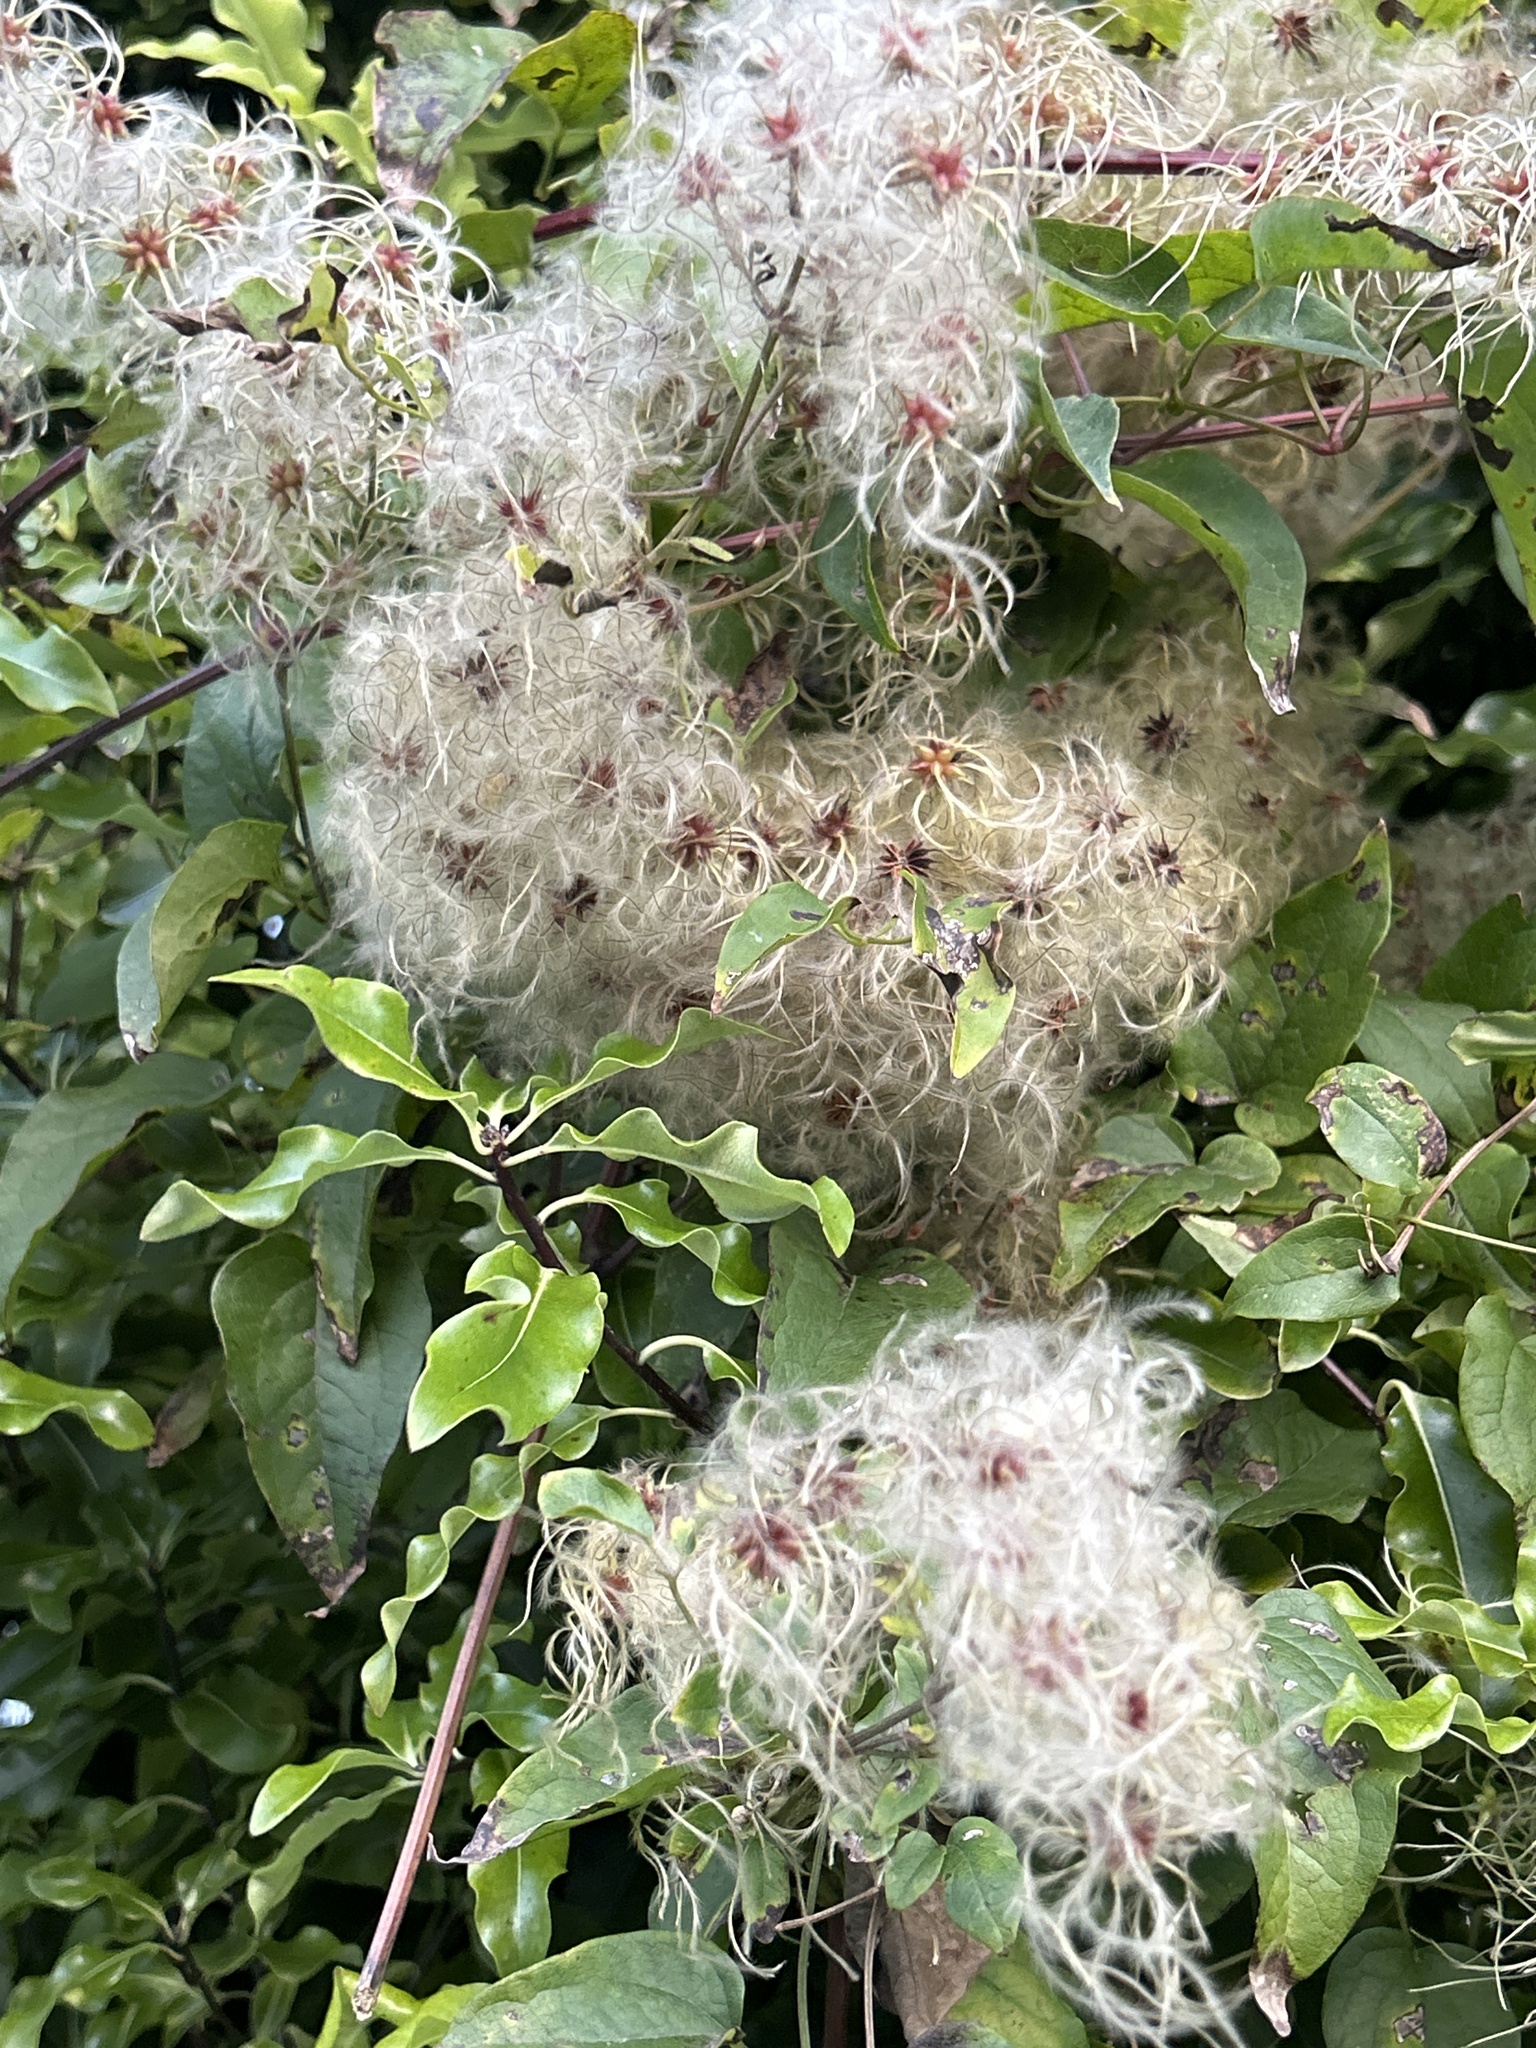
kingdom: Plantae
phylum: Tracheophyta
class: Magnoliopsida
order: Ranunculales
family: Ranunculaceae
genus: Clematis
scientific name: Clematis vitalba
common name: Evergreen clematis
